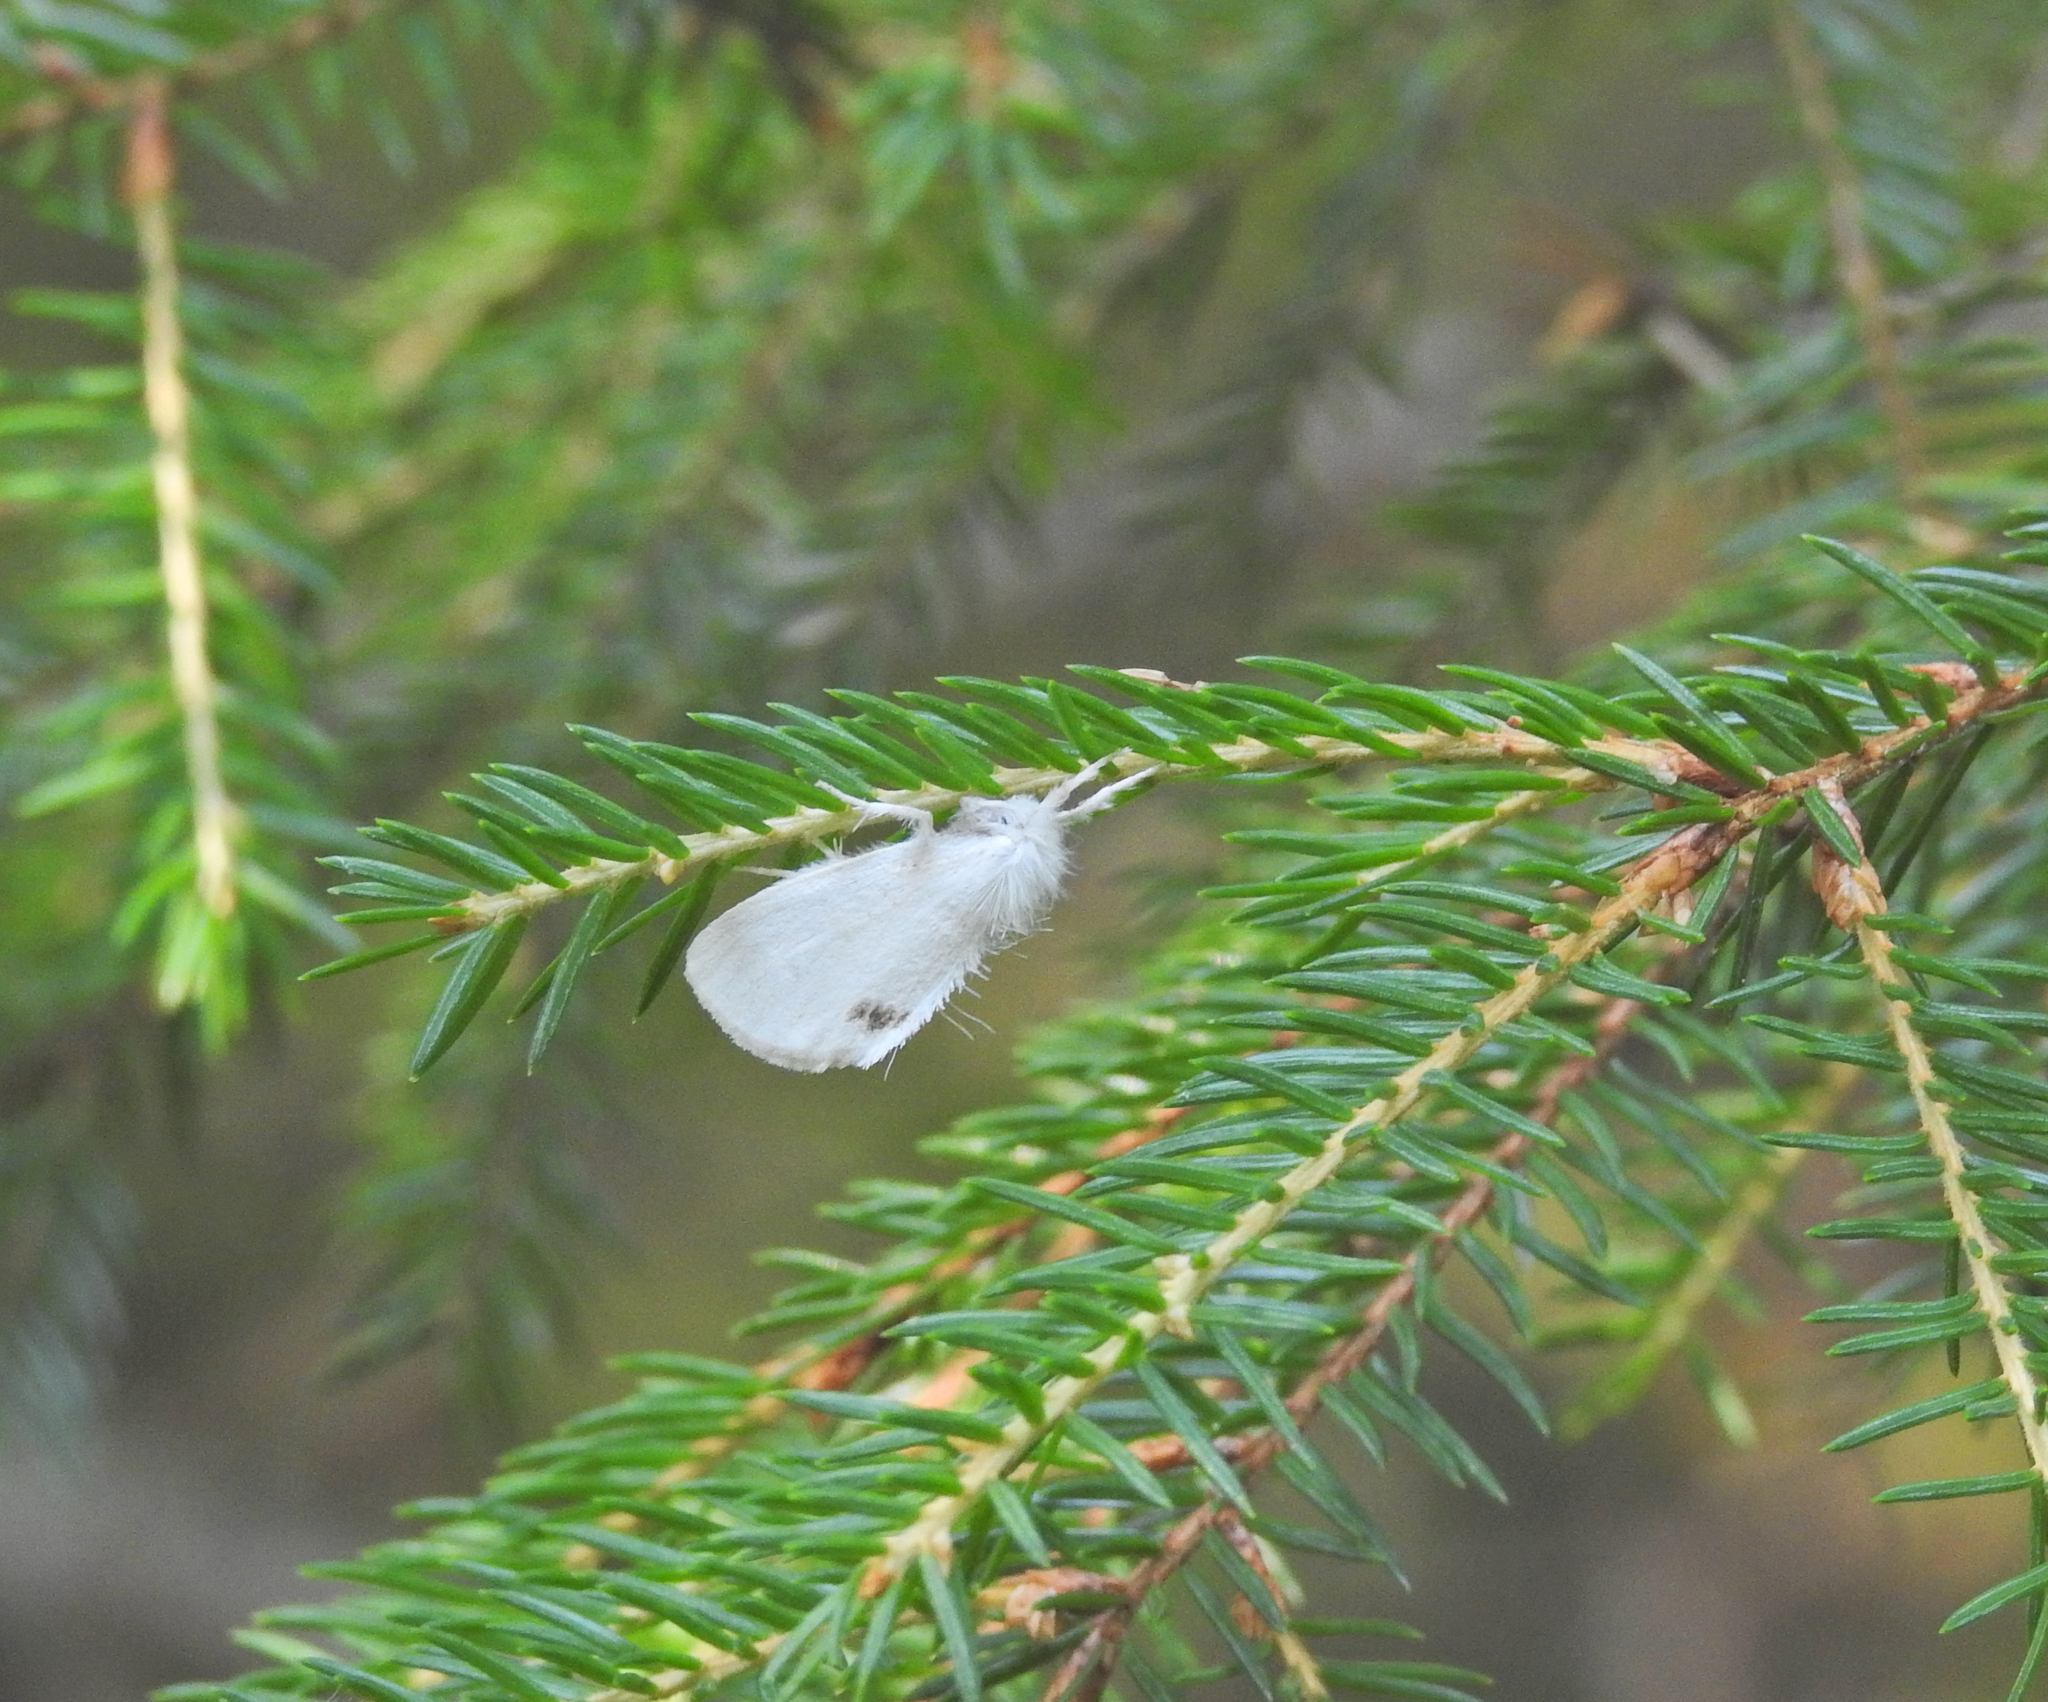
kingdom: Animalia
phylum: Arthropoda
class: Insecta
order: Lepidoptera
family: Erebidae
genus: Sphrageidus
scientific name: Sphrageidus similis
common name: Yellow-tail
